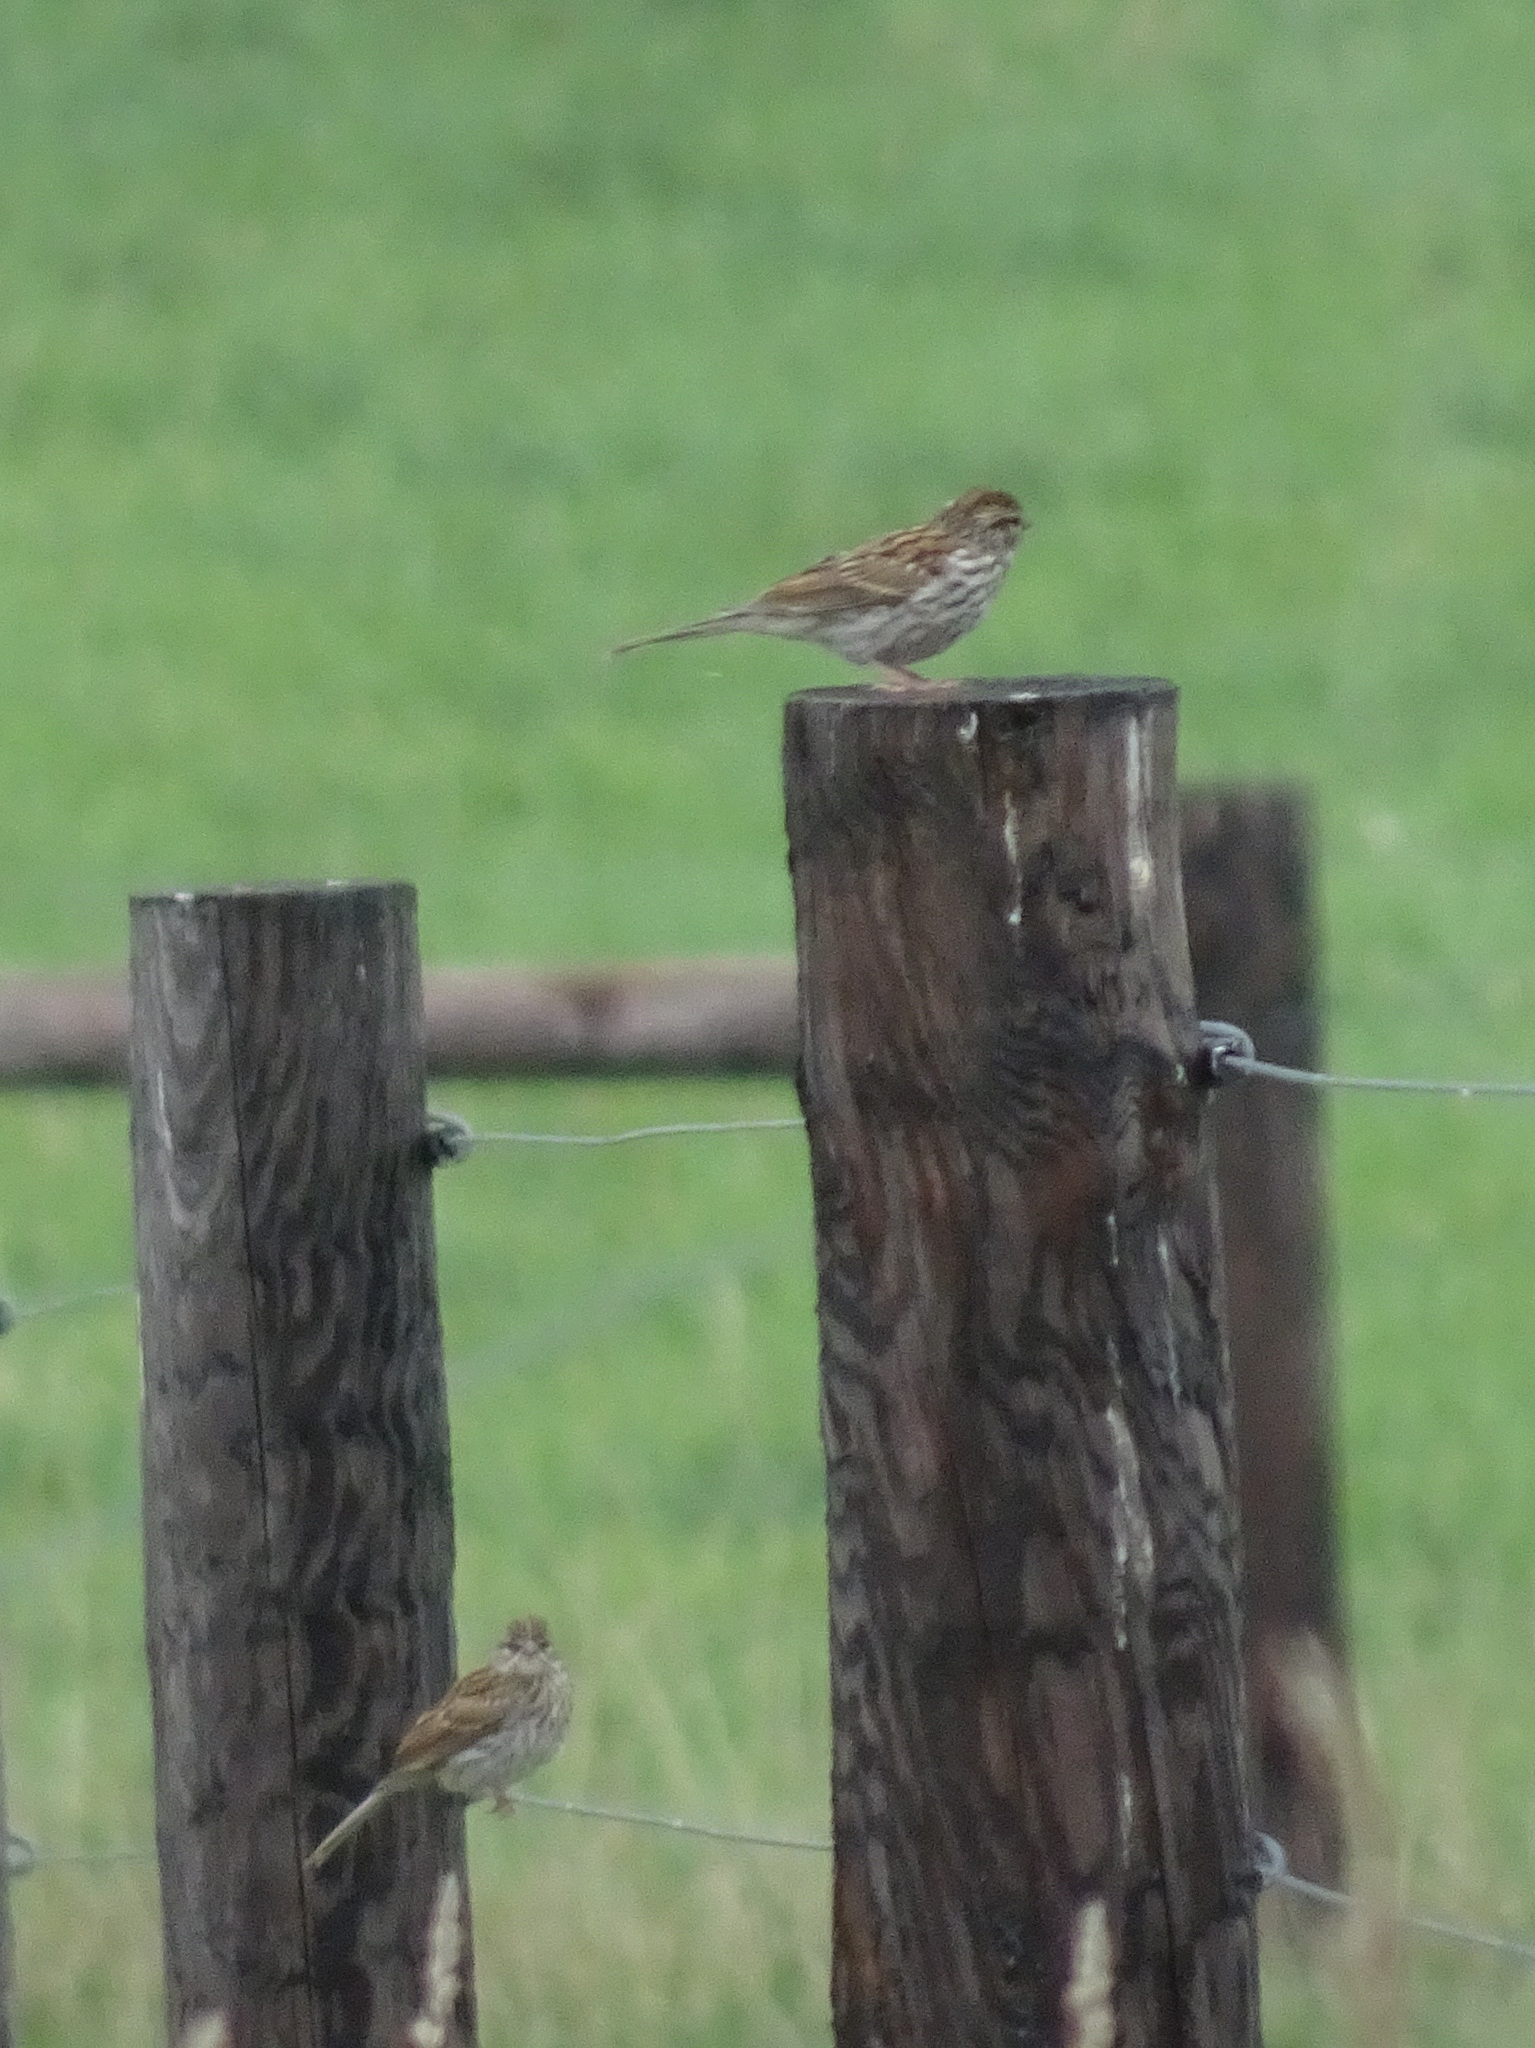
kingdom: Animalia
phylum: Chordata
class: Aves
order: Passeriformes
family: Passerellidae
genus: Spizella
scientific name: Spizella passerina
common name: Chipping sparrow
